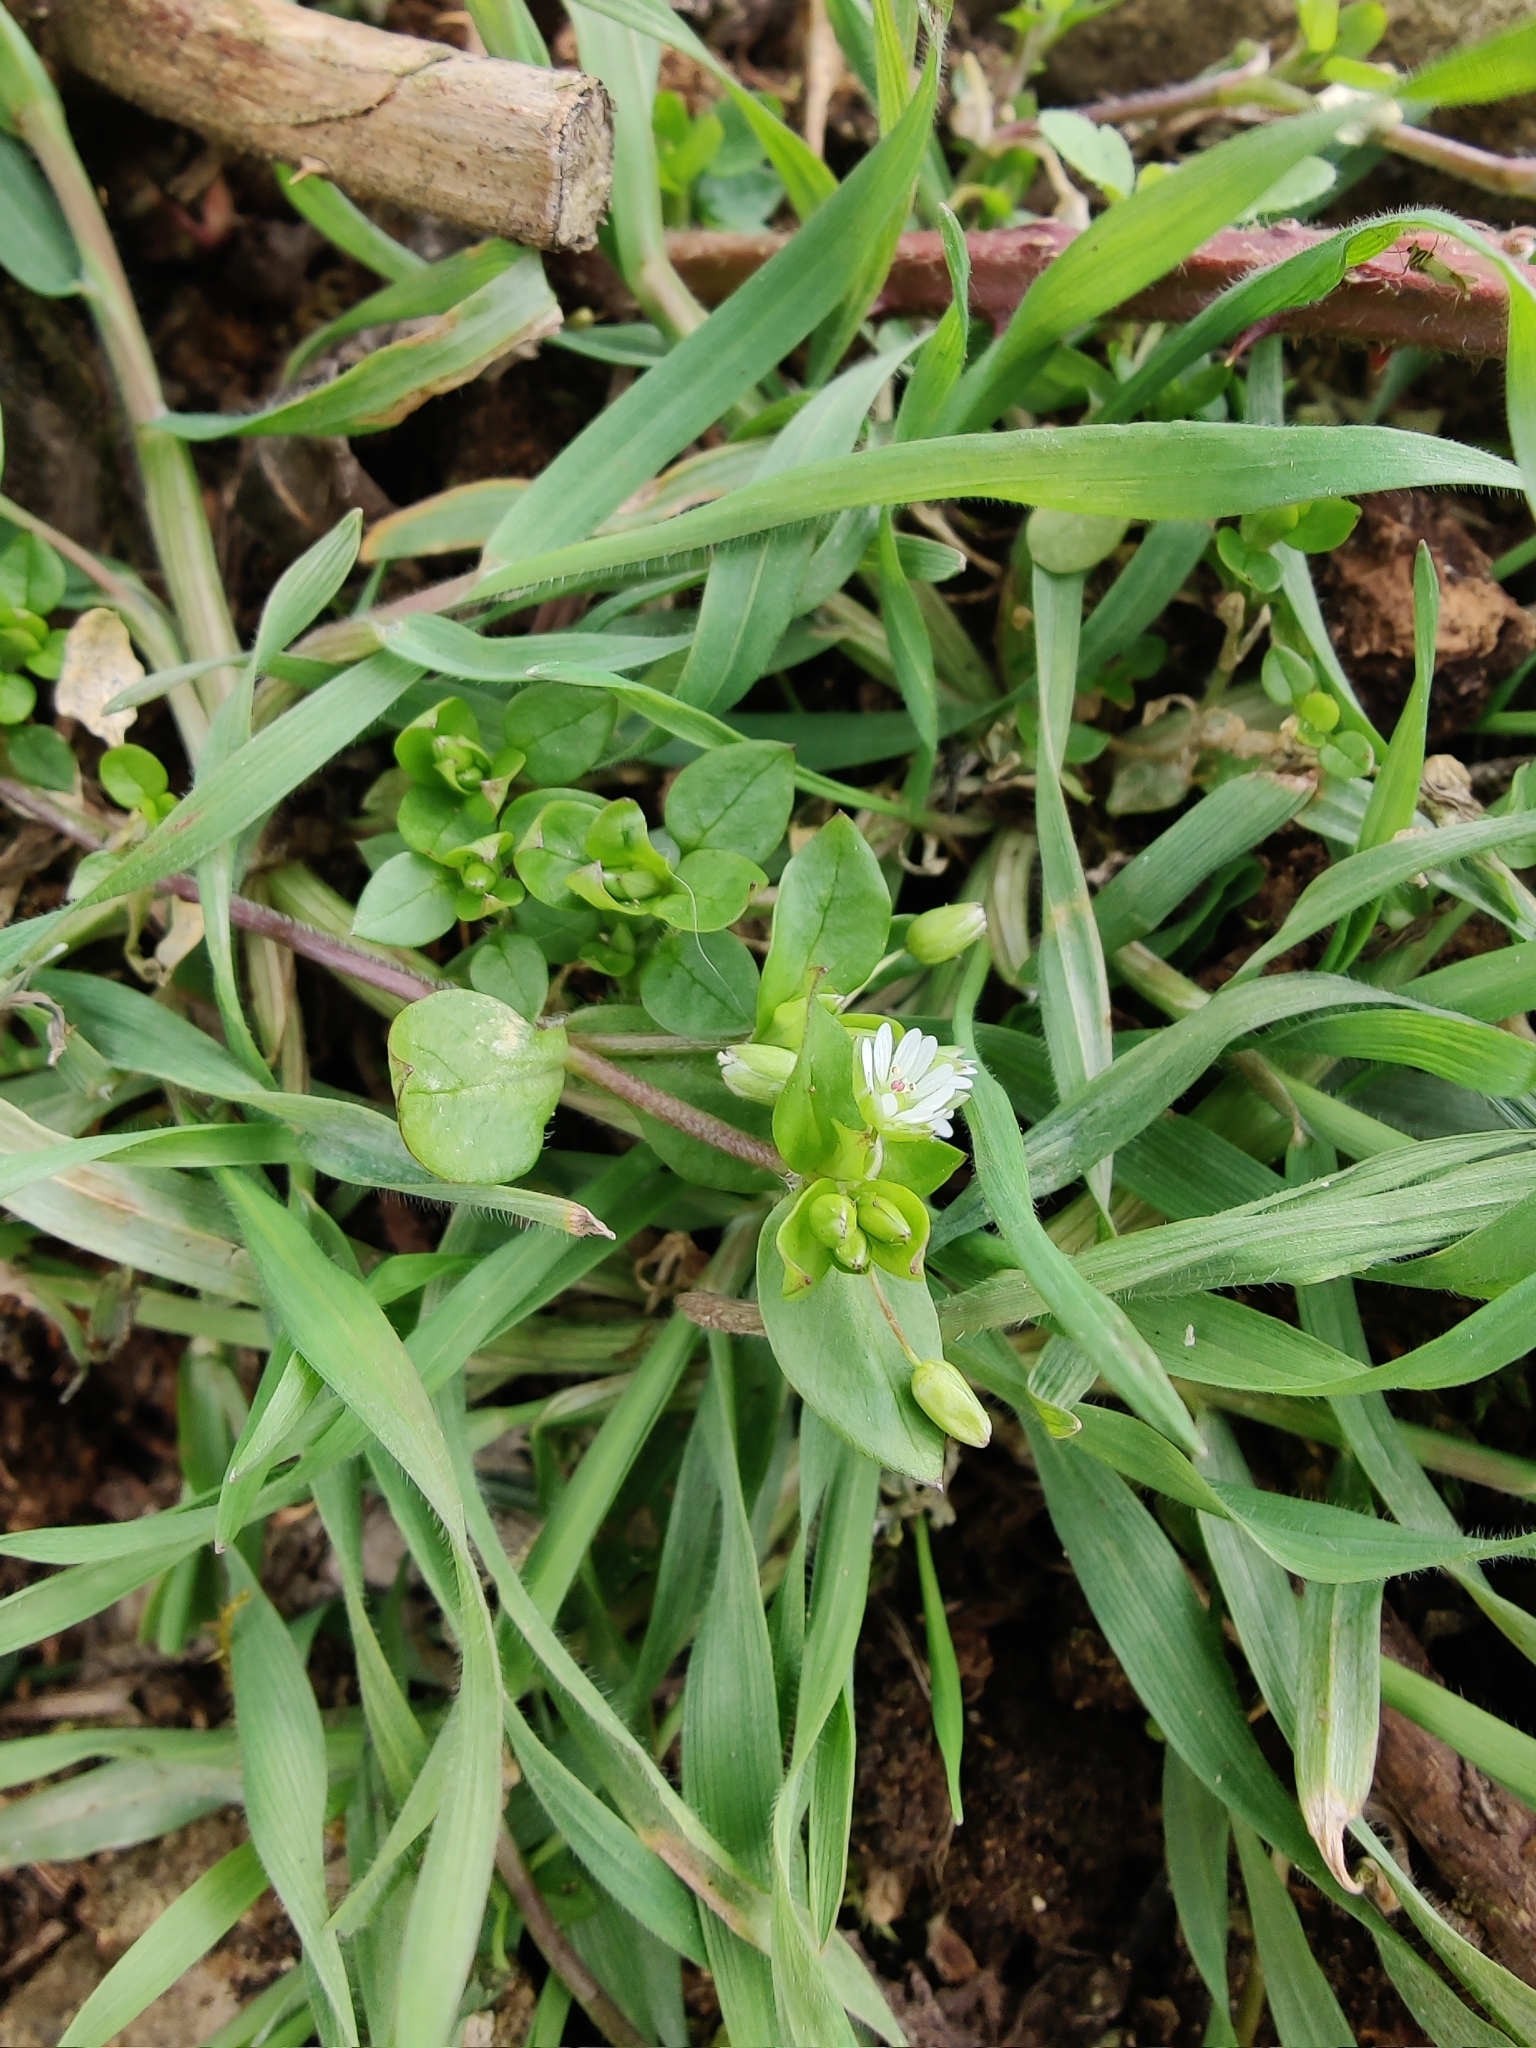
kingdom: Plantae
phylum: Tracheophyta
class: Magnoliopsida
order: Caryophyllales
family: Caryophyllaceae
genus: Stellaria
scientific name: Stellaria media
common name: Common chickweed
